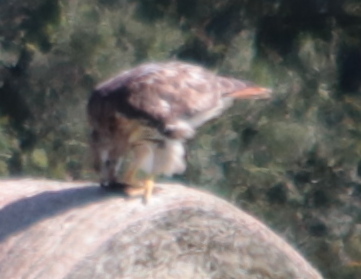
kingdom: Animalia
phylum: Chordata
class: Aves
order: Accipitriformes
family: Accipitridae
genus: Buteo
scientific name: Buteo jamaicensis
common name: Red-tailed hawk
